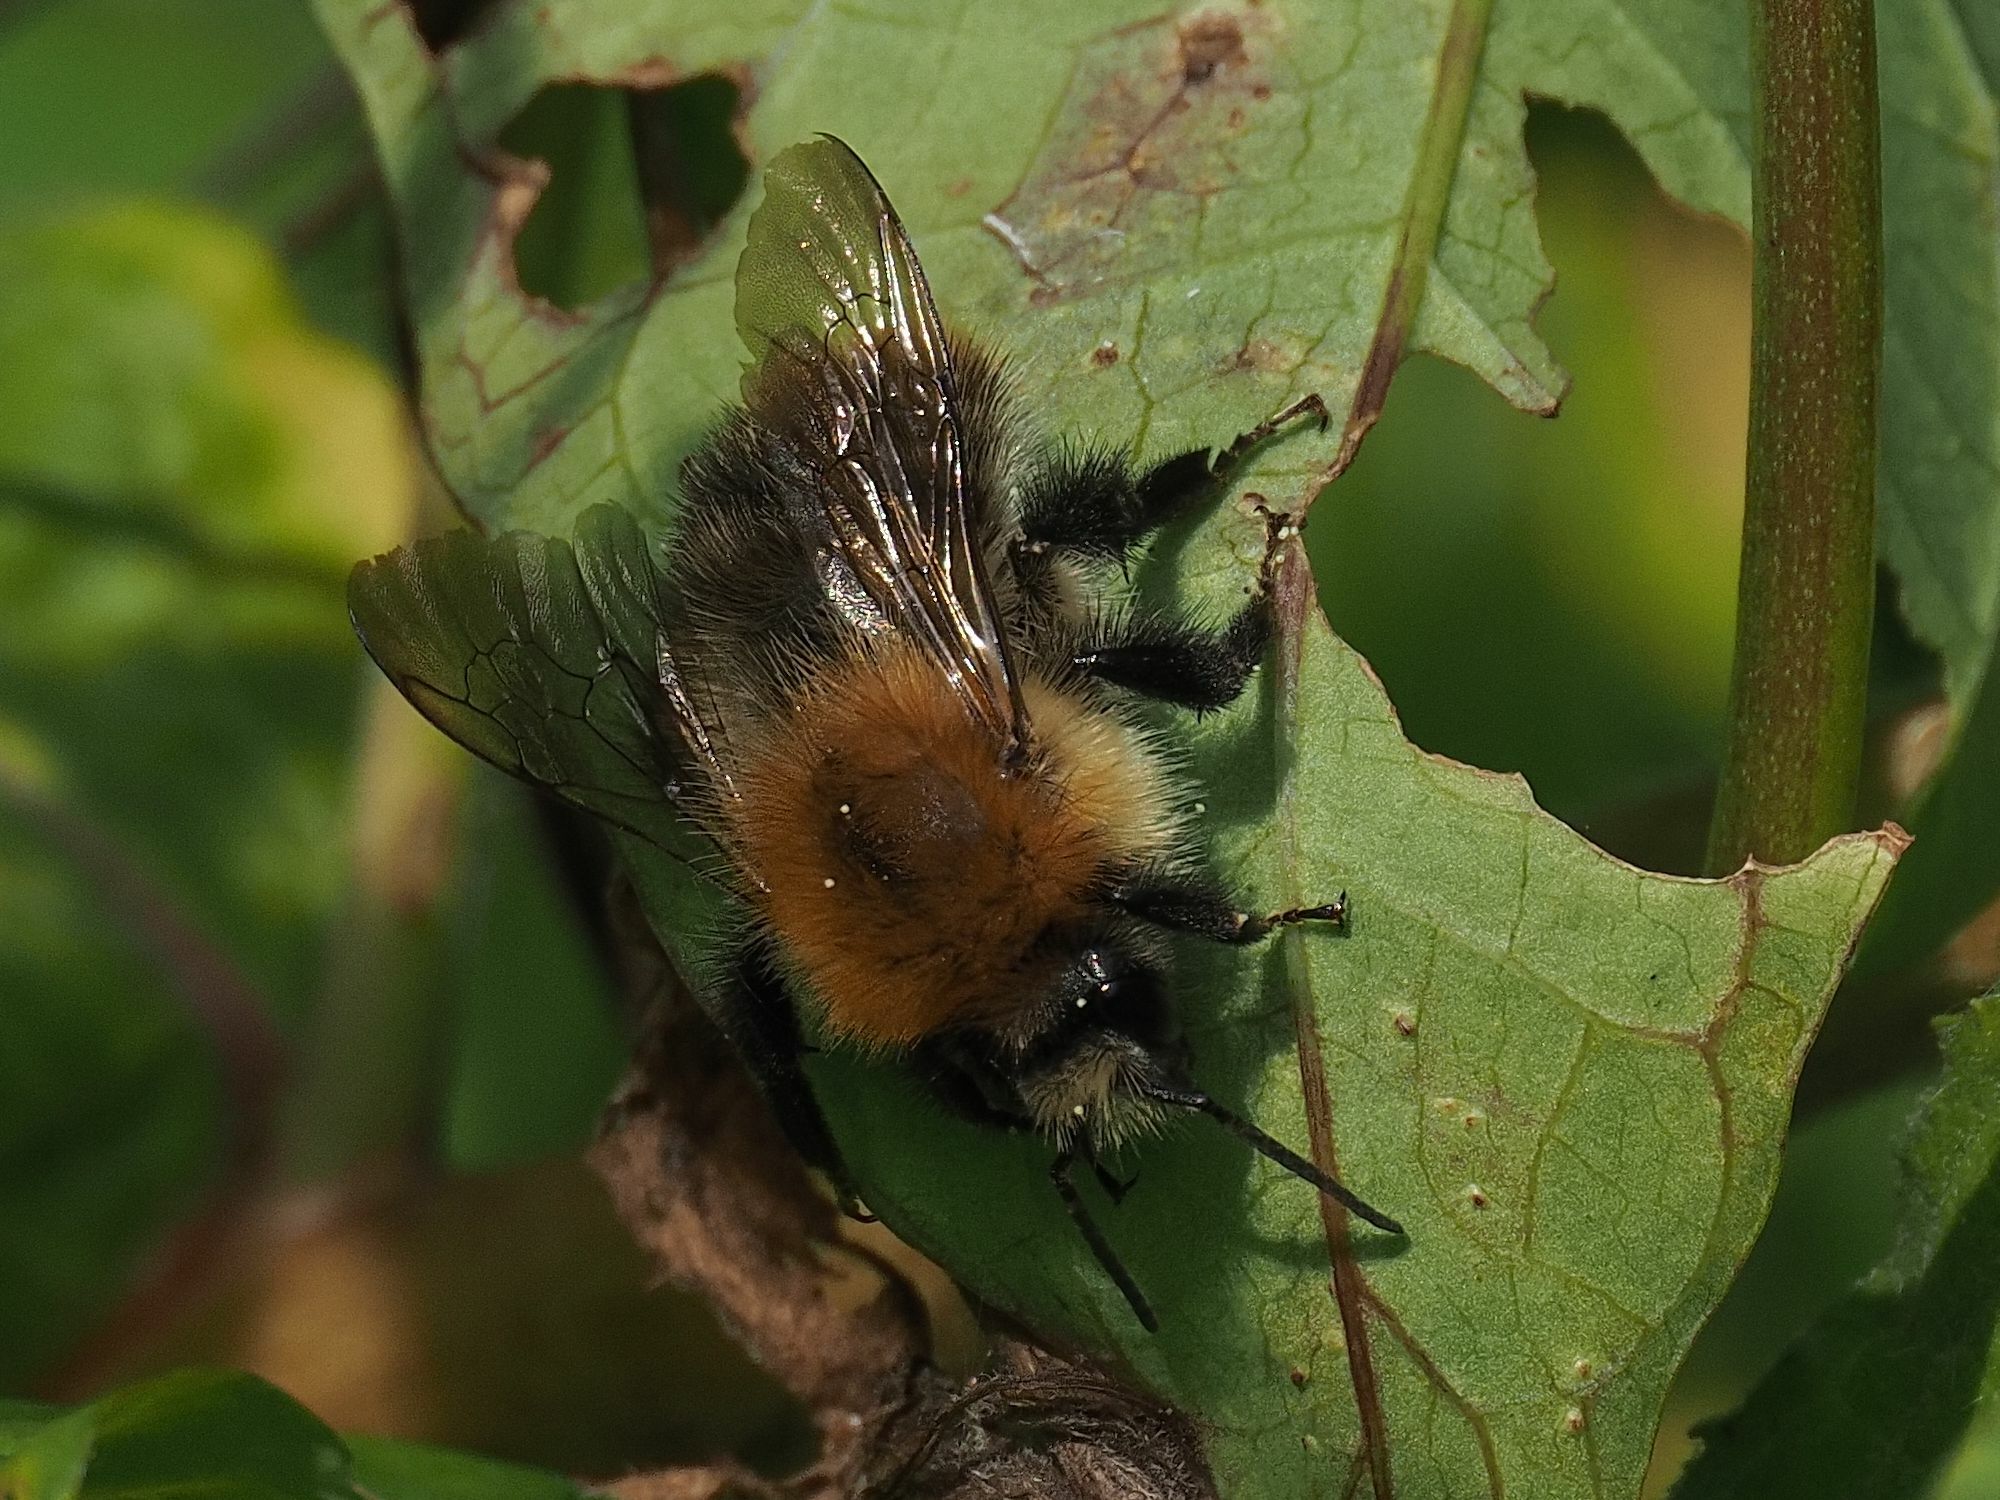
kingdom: Animalia
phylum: Arthropoda
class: Insecta
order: Hymenoptera
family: Apidae
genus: Bombus
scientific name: Bombus pascuorum
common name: Common carder bee
